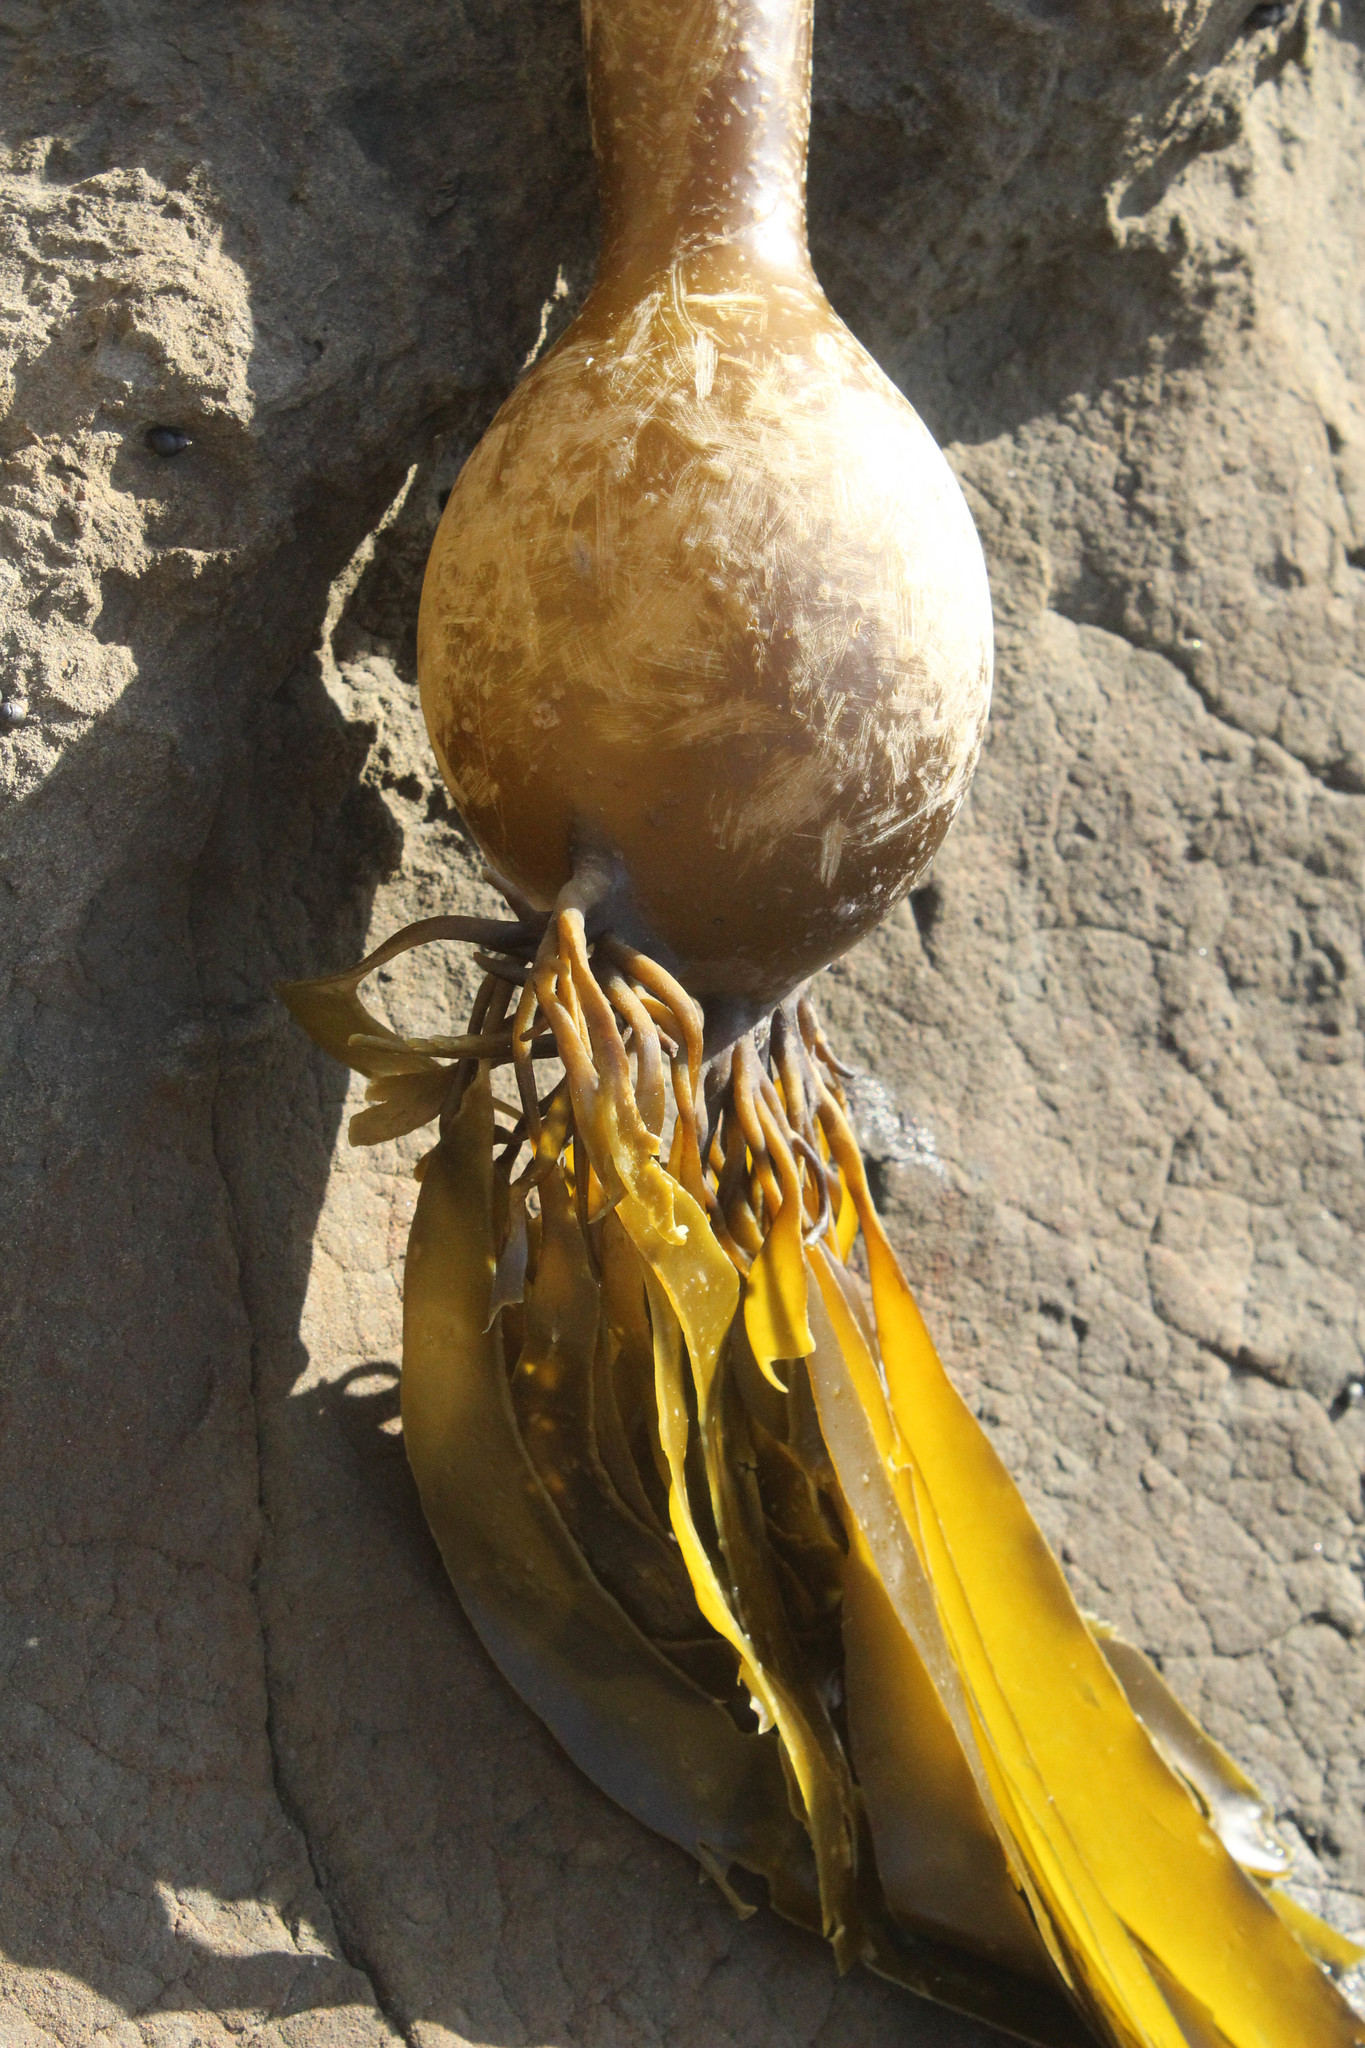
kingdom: Chromista
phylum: Ochrophyta
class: Phaeophyceae
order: Laminariales
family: Laminariaceae
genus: Nereocystis
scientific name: Nereocystis luetkeana
